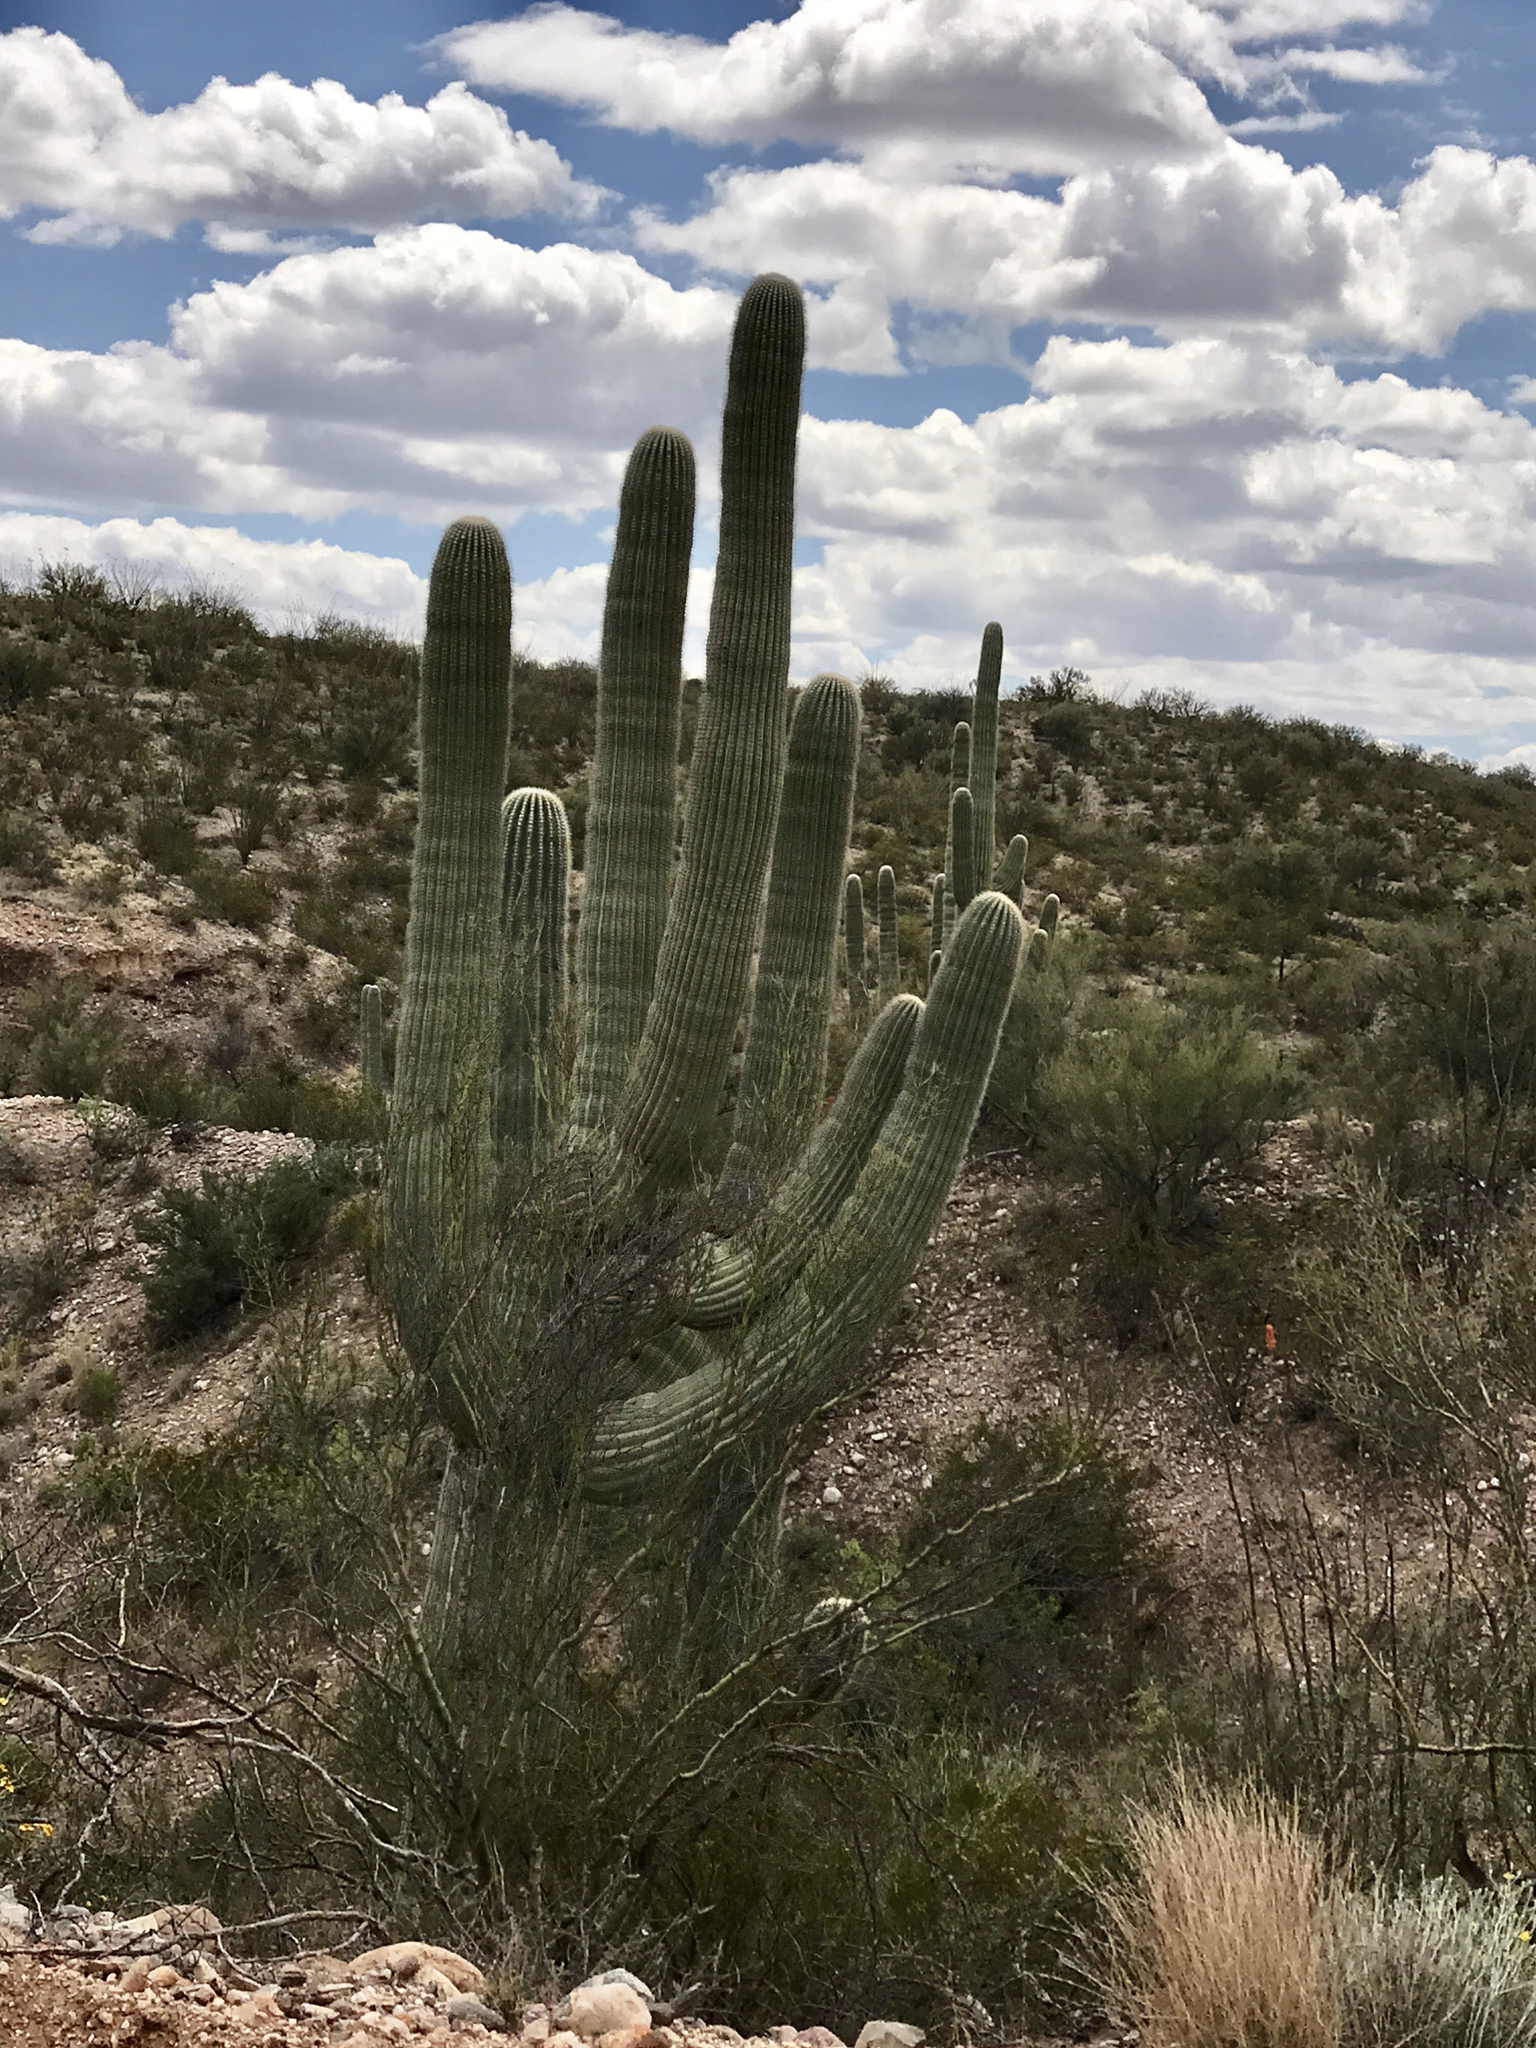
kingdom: Plantae
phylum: Tracheophyta
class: Magnoliopsida
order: Caryophyllales
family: Cactaceae
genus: Carnegiea
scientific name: Carnegiea gigantea
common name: Saguaro
